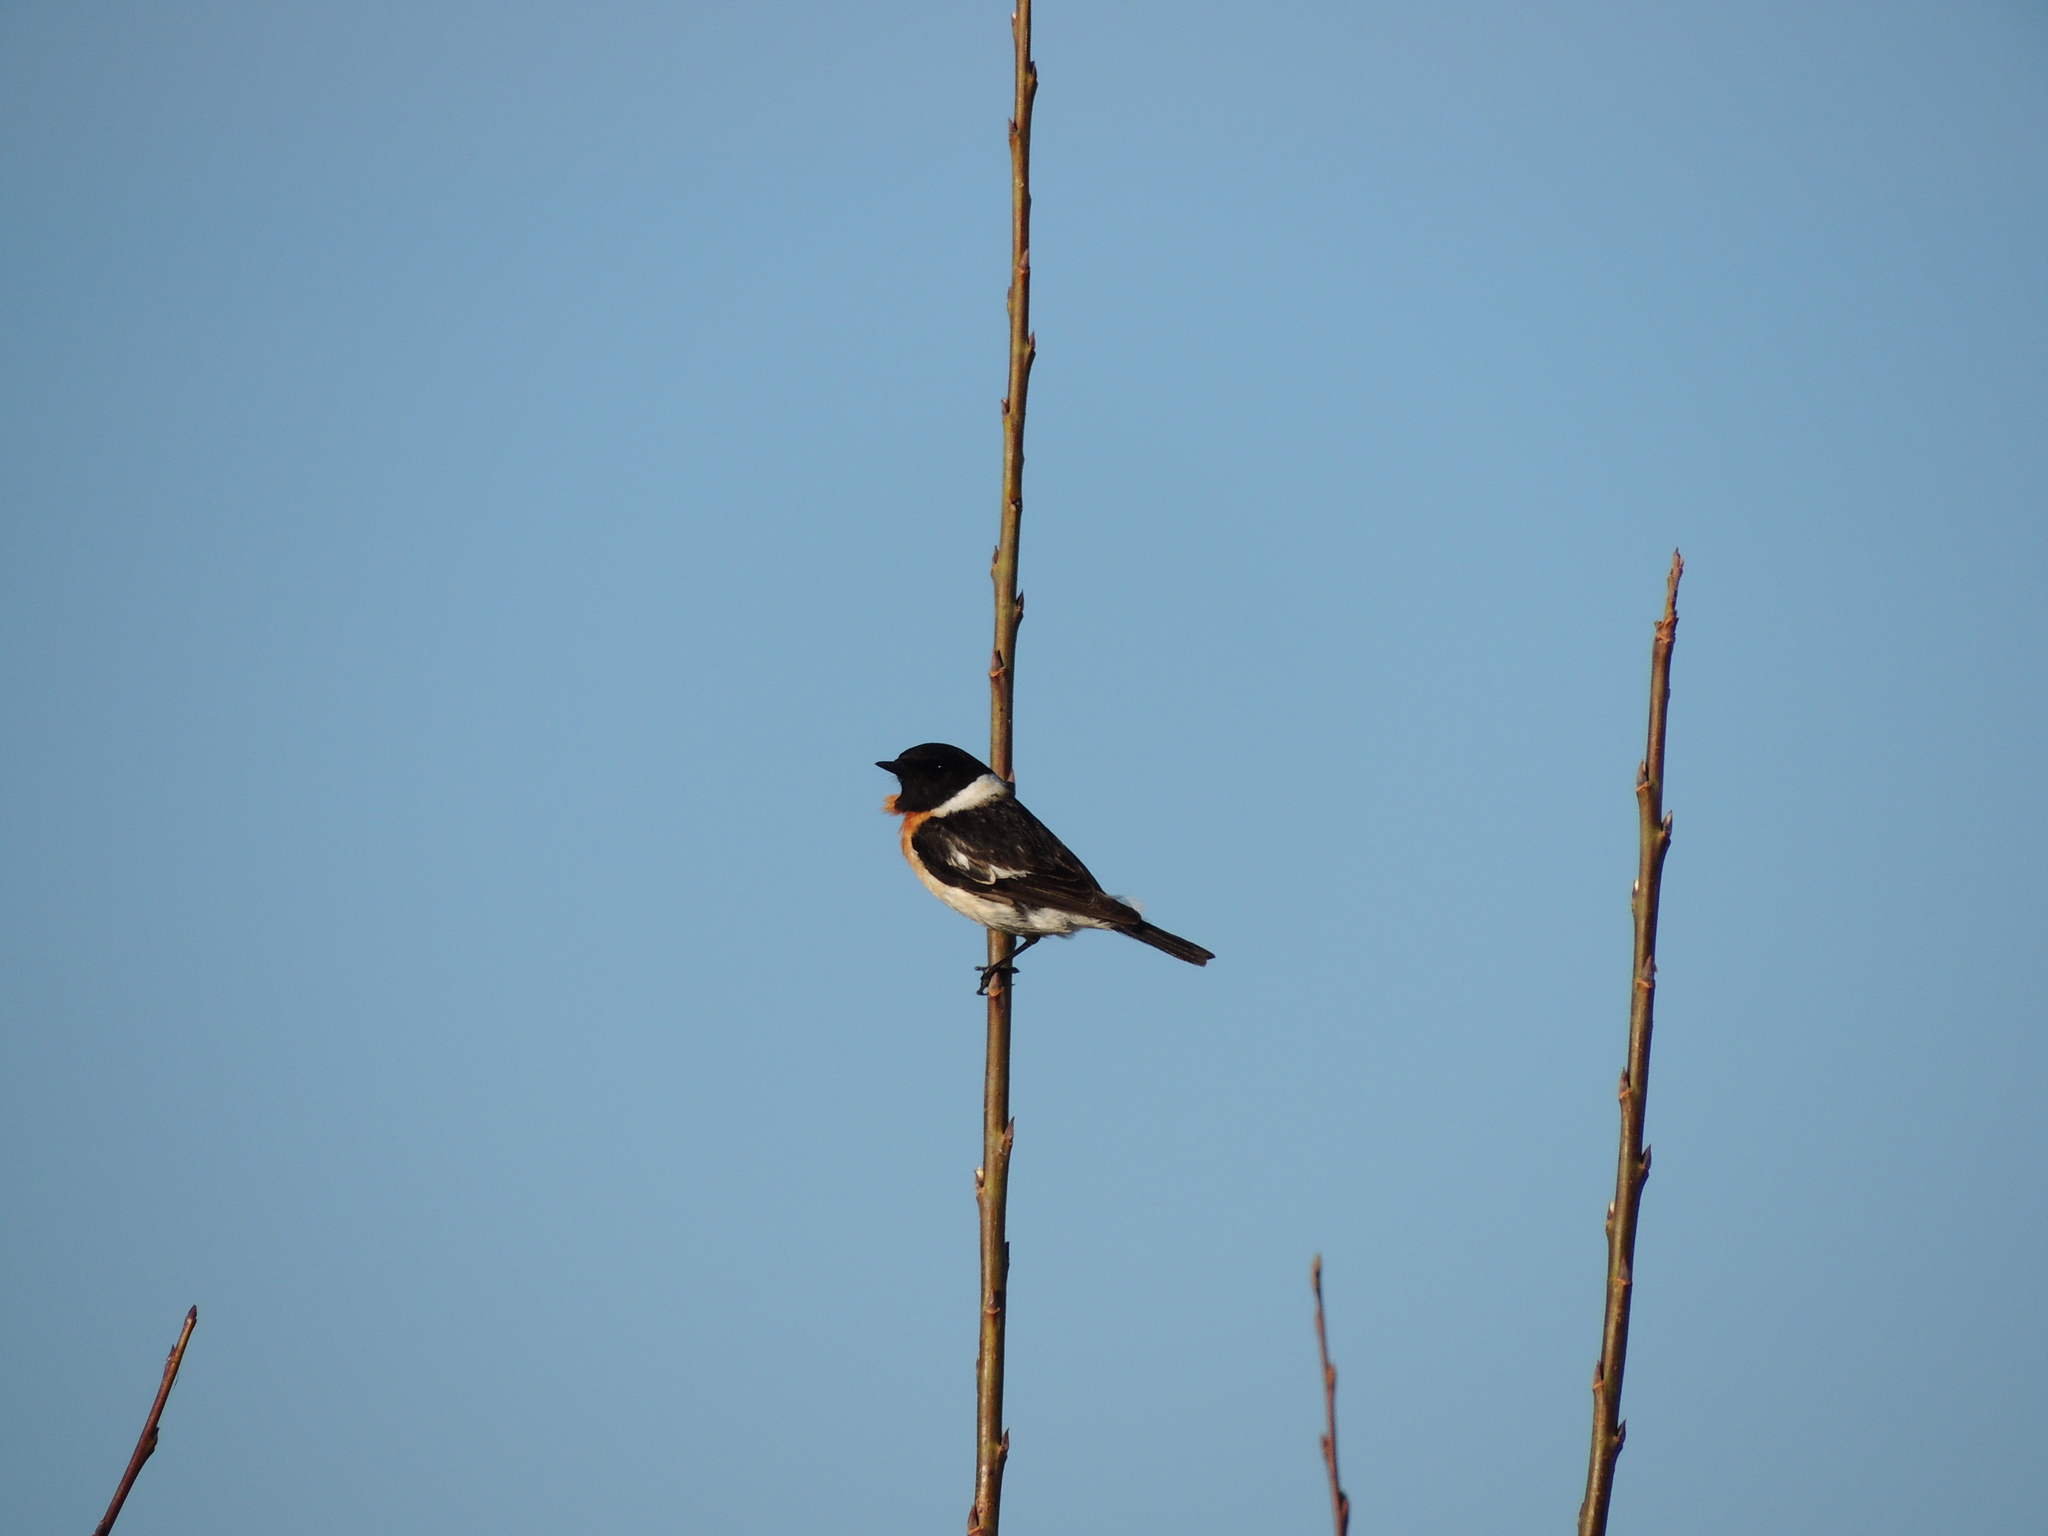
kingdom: Animalia
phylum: Chordata
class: Aves
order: Passeriformes
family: Muscicapidae
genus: Saxicola
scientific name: Saxicola maurus
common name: Siberian stonechat
